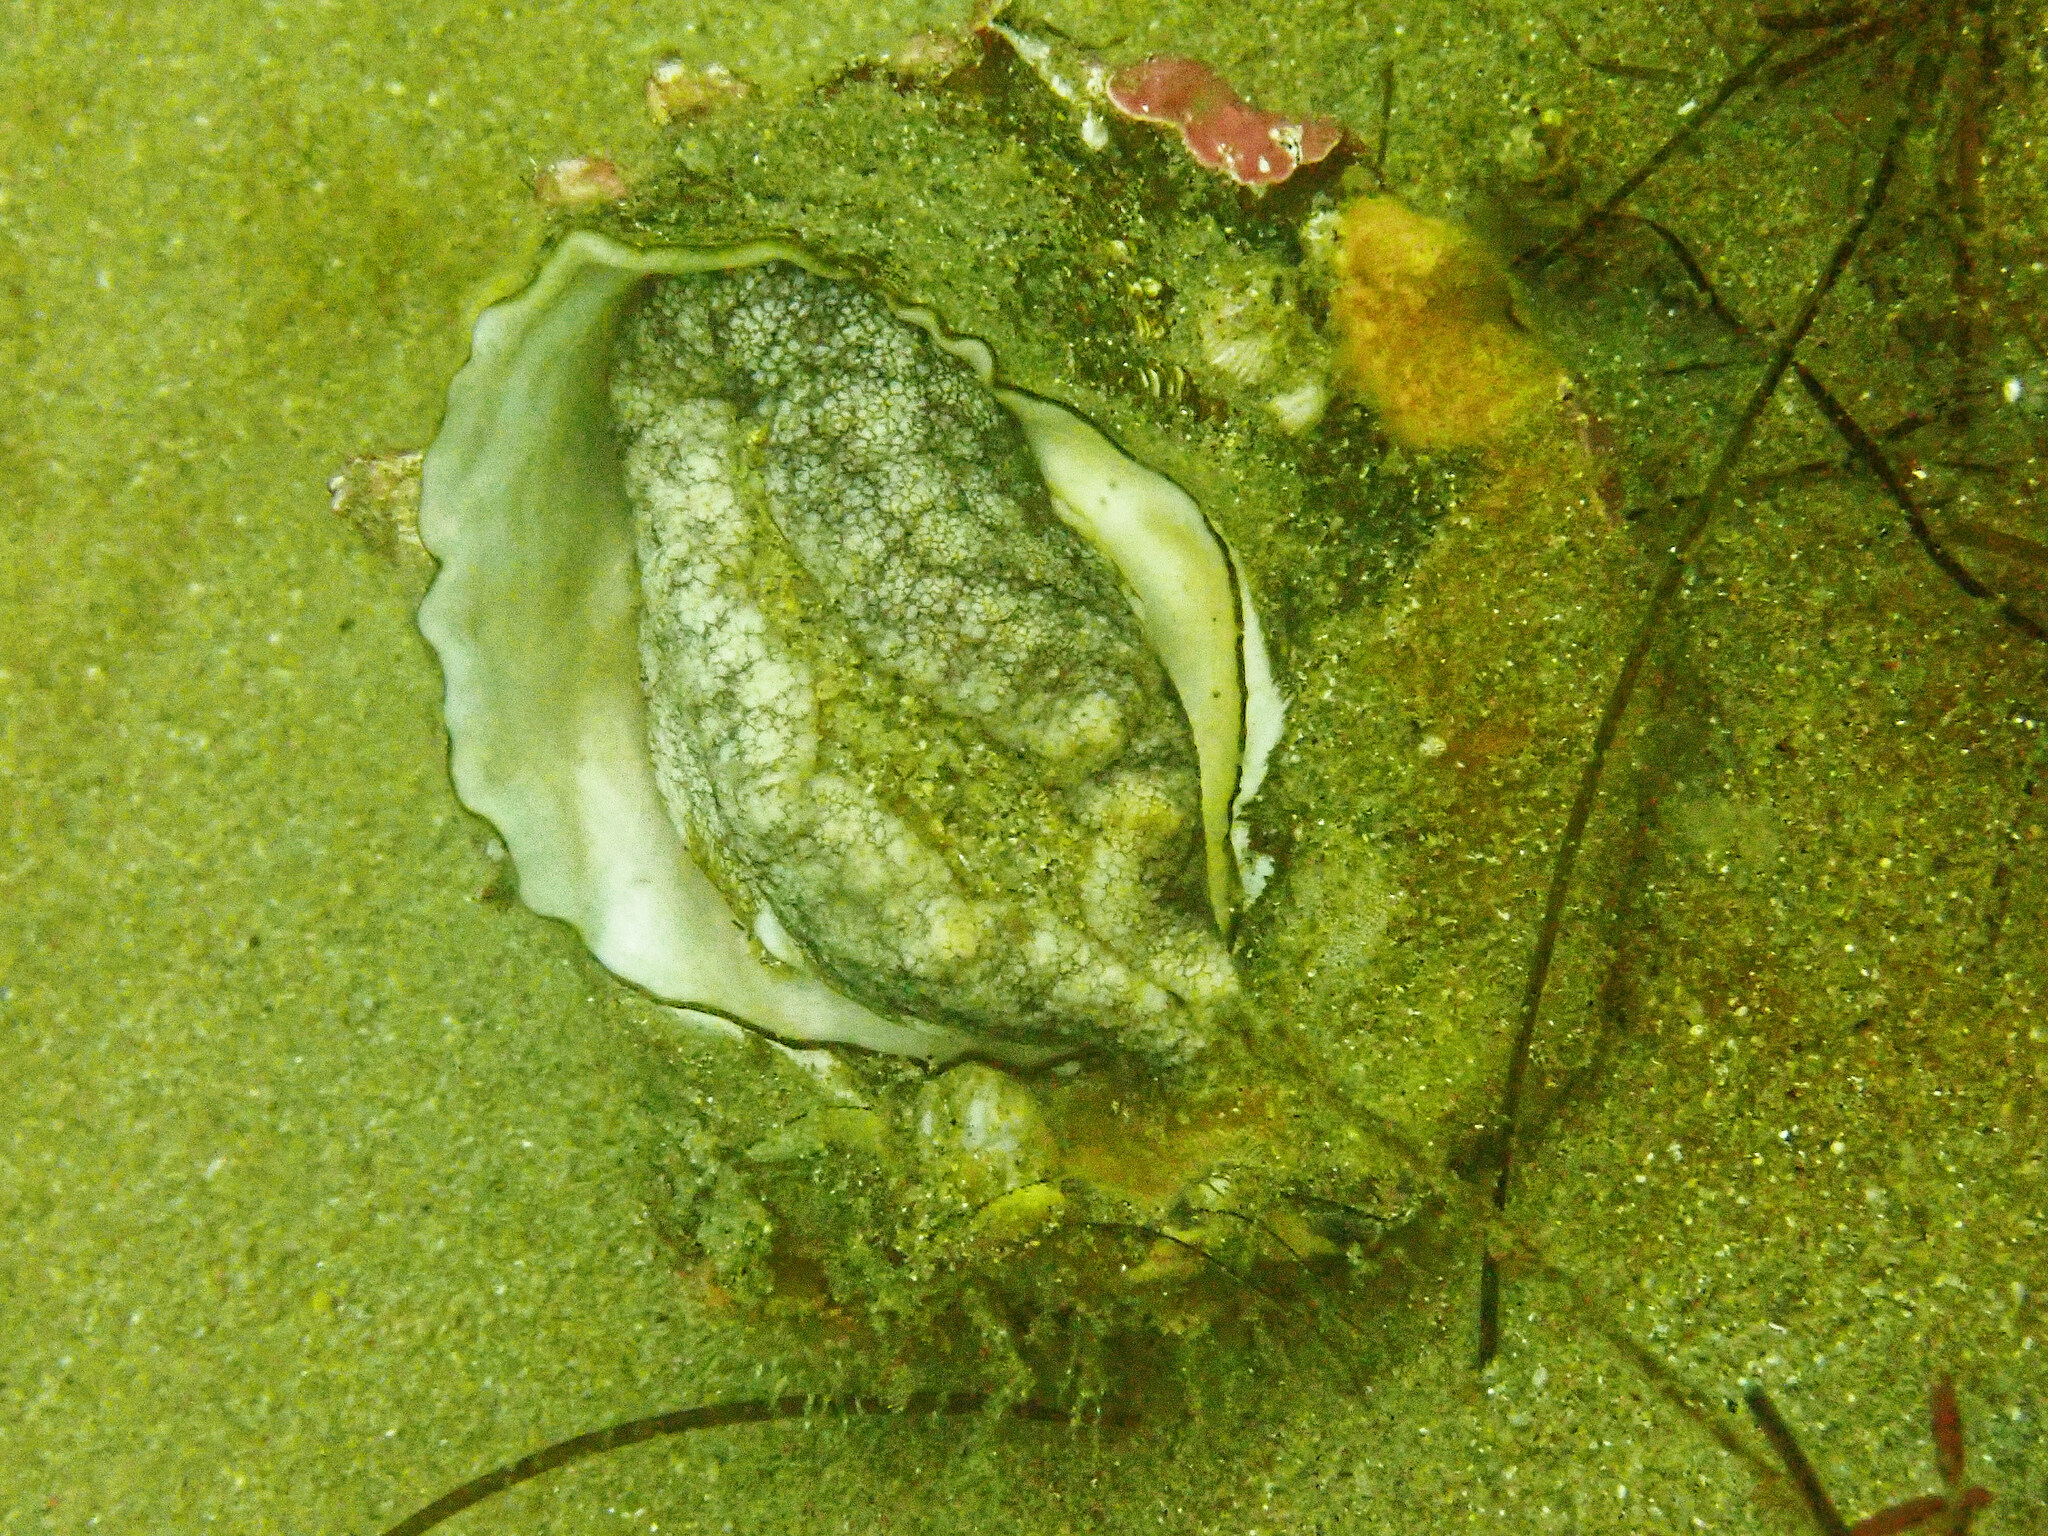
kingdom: Animalia
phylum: Mollusca
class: Gastropoda
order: Trochida
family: Turbinidae
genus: Megastraea
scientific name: Megastraea undosa
